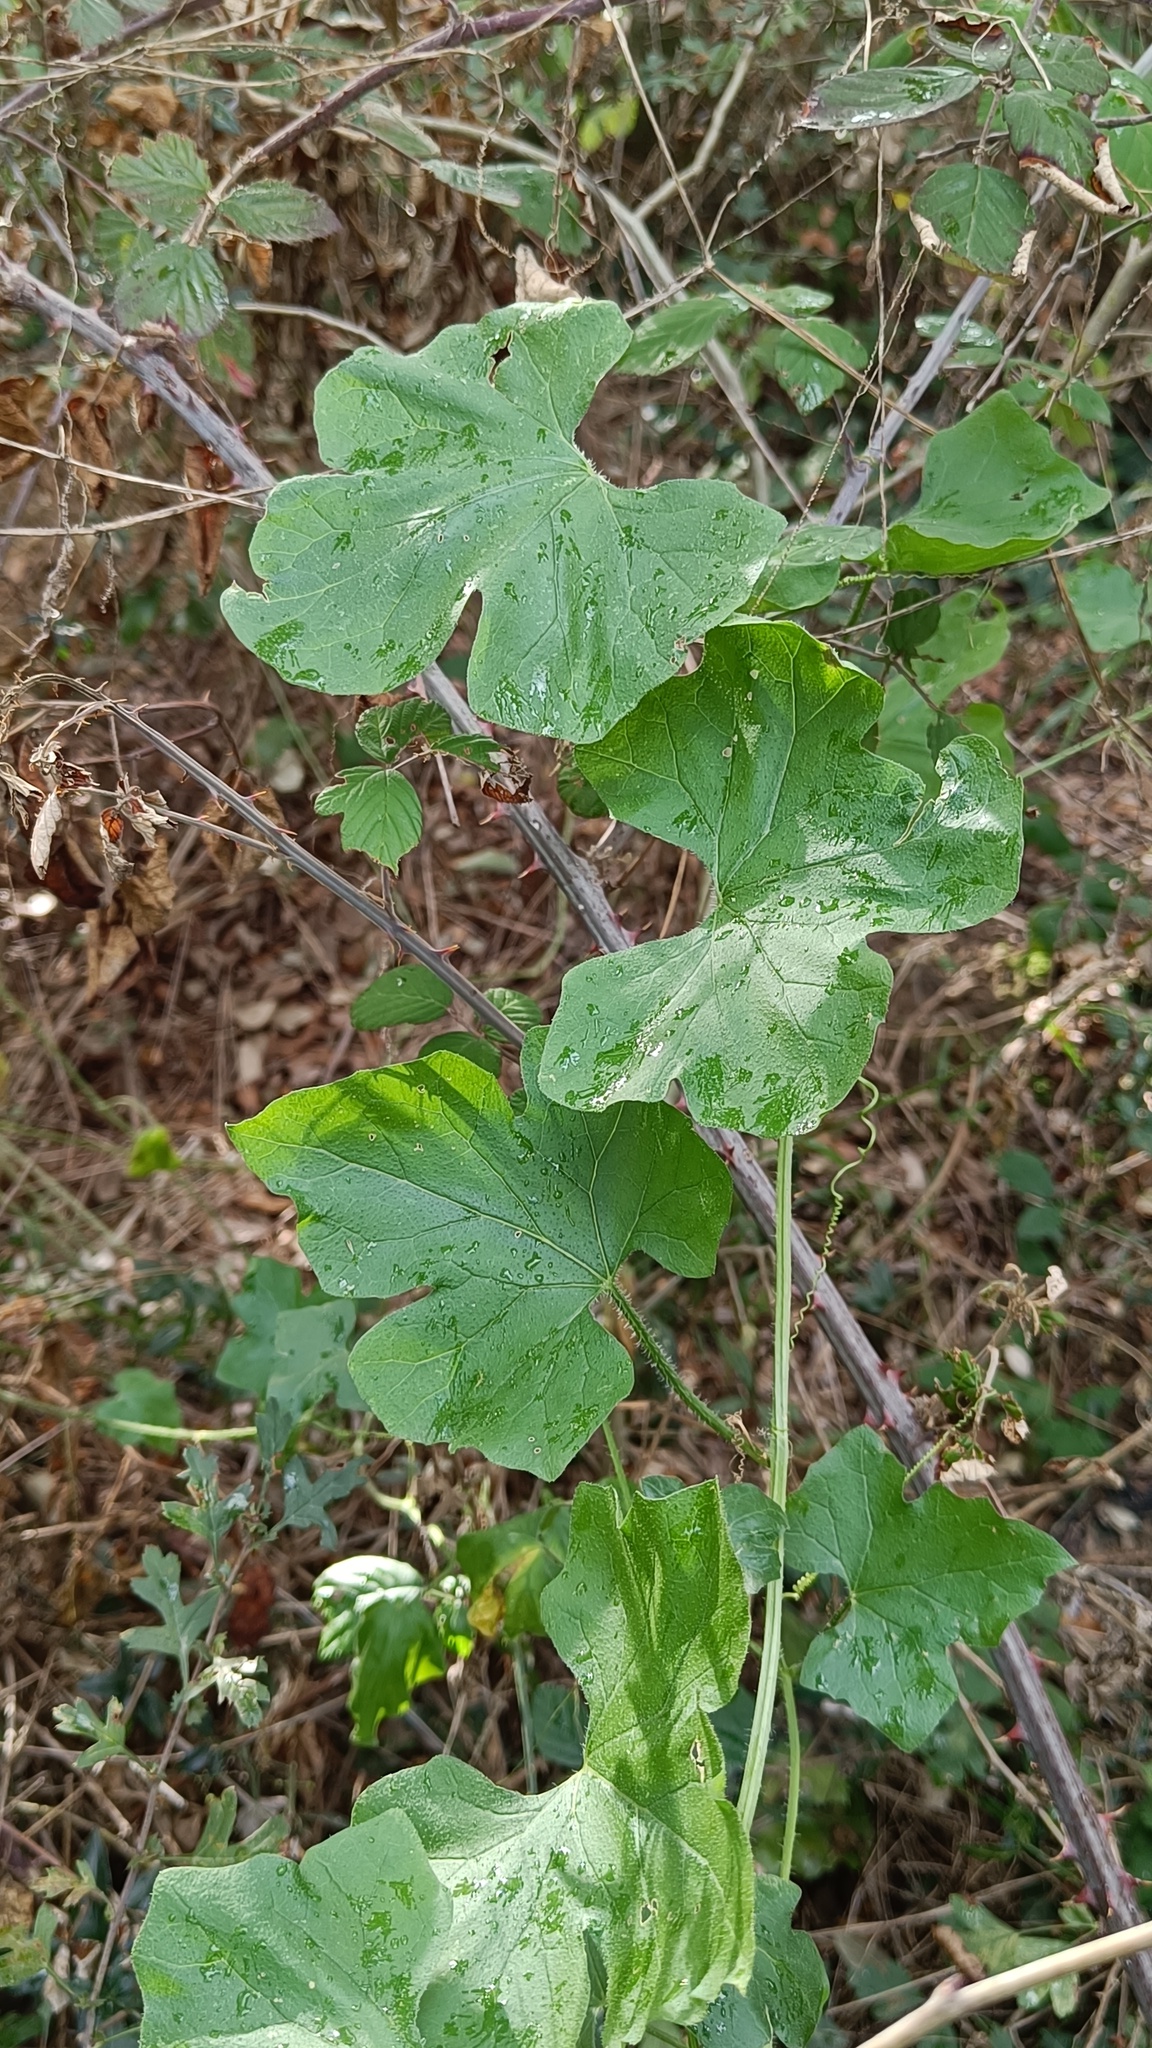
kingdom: Plantae
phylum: Tracheophyta
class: Magnoliopsida
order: Cucurbitales
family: Cucurbitaceae
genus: Bryonia
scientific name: Bryonia dioica
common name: White bryony
